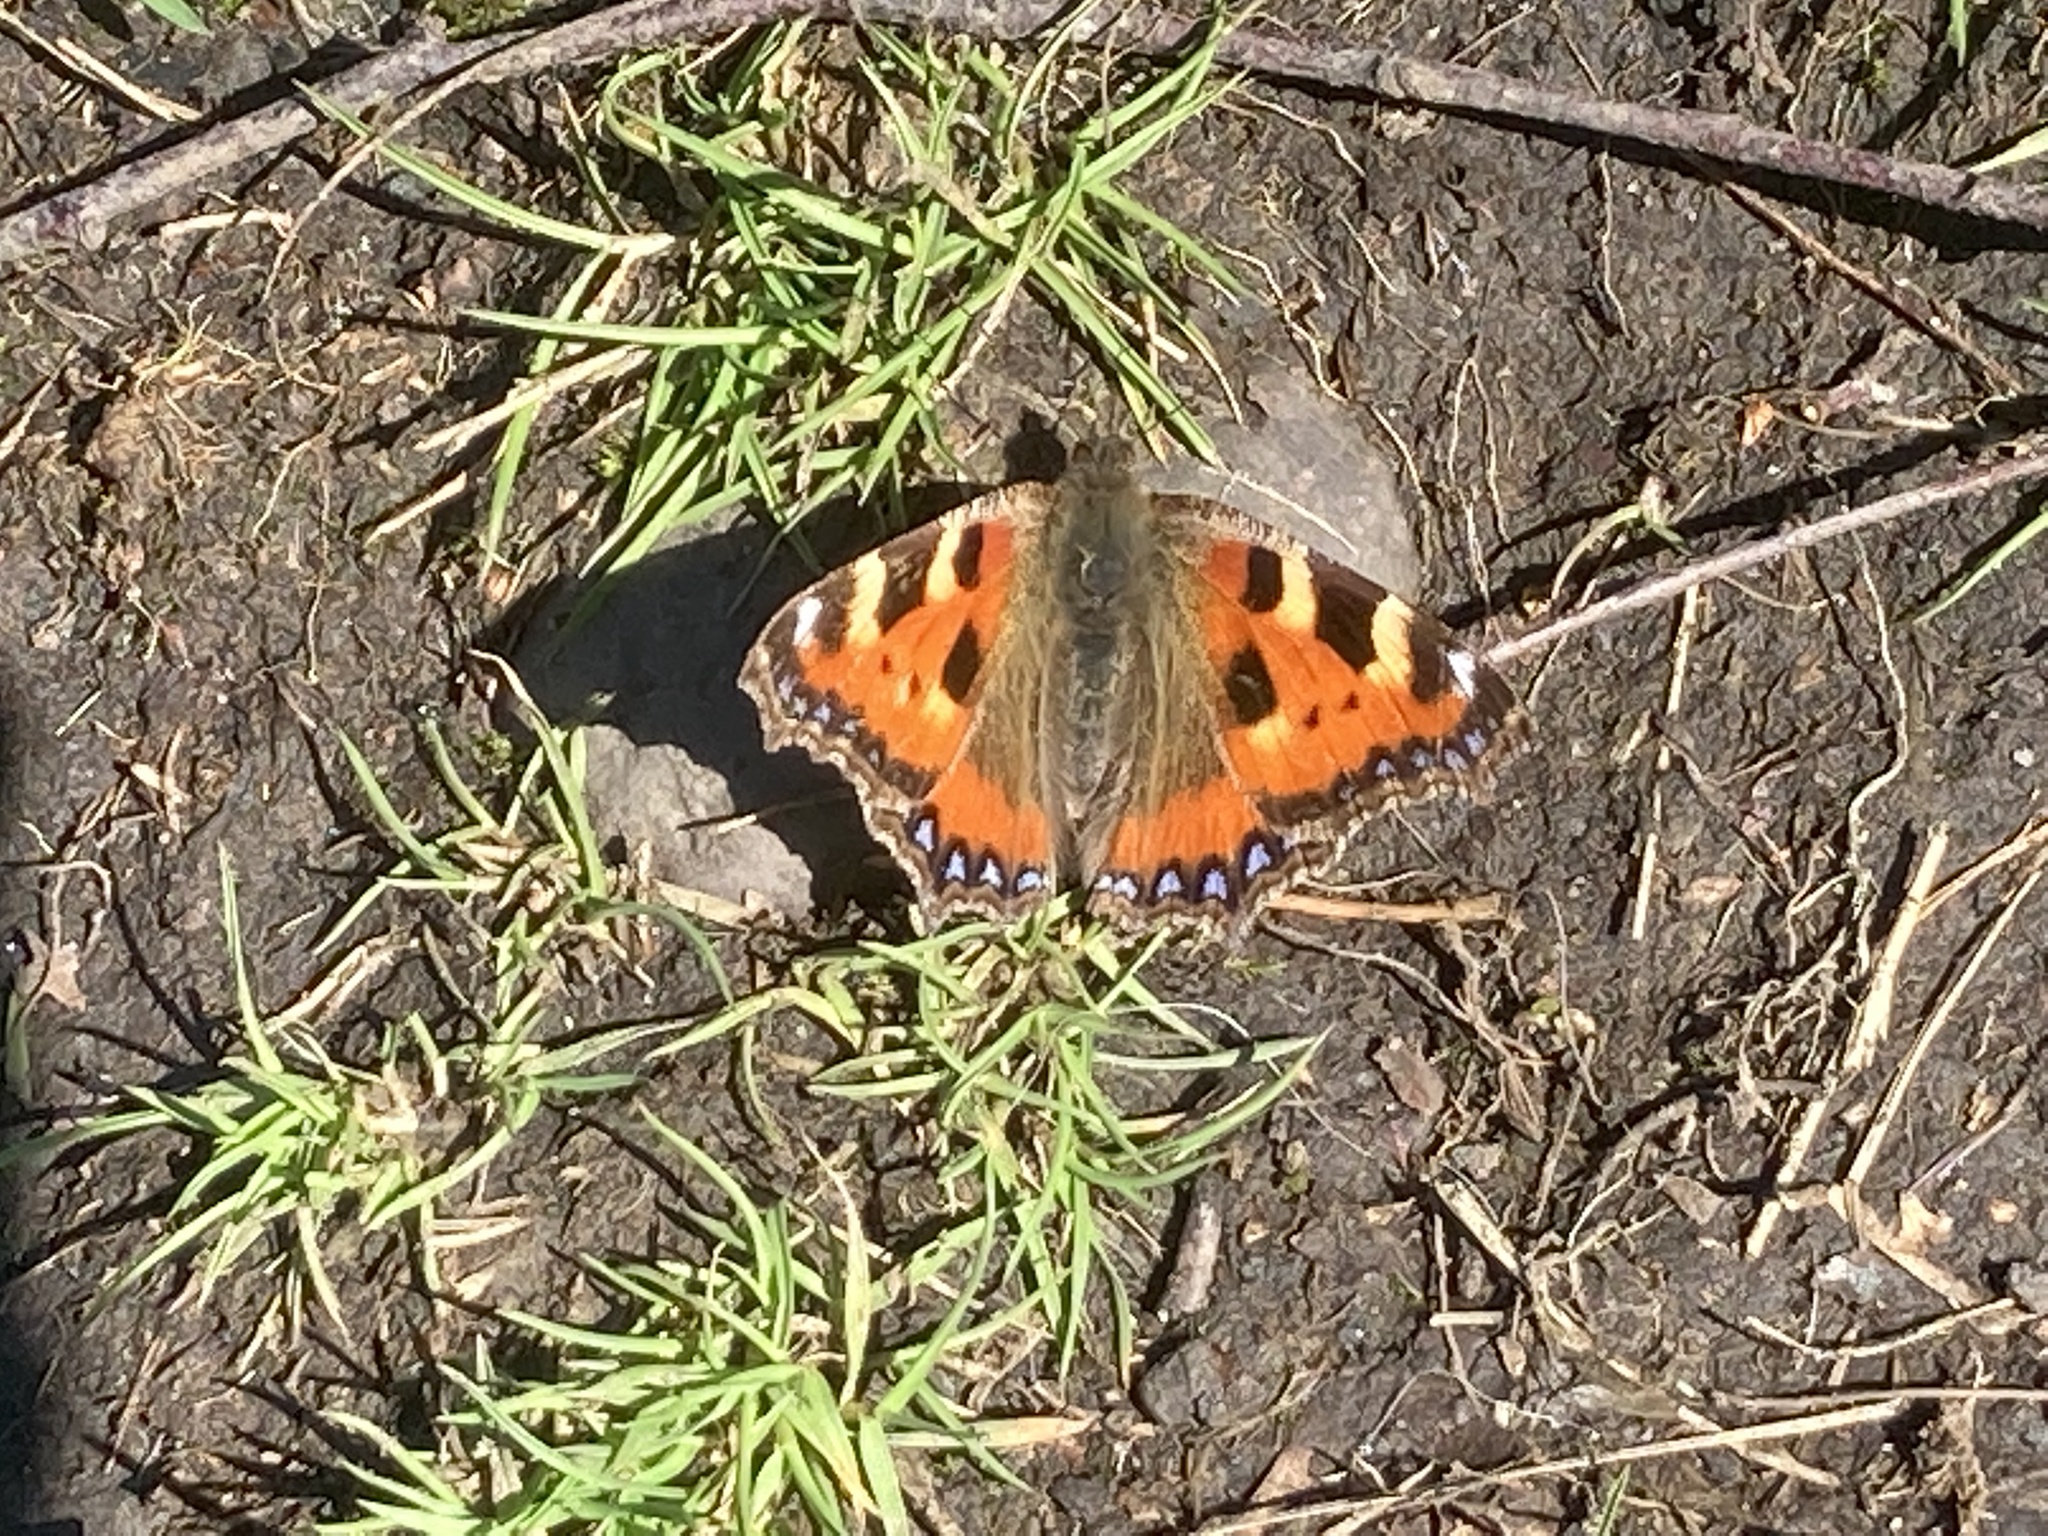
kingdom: Animalia
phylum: Arthropoda
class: Insecta
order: Lepidoptera
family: Nymphalidae
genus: Aglais
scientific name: Aglais urticae
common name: Small tortoiseshell
